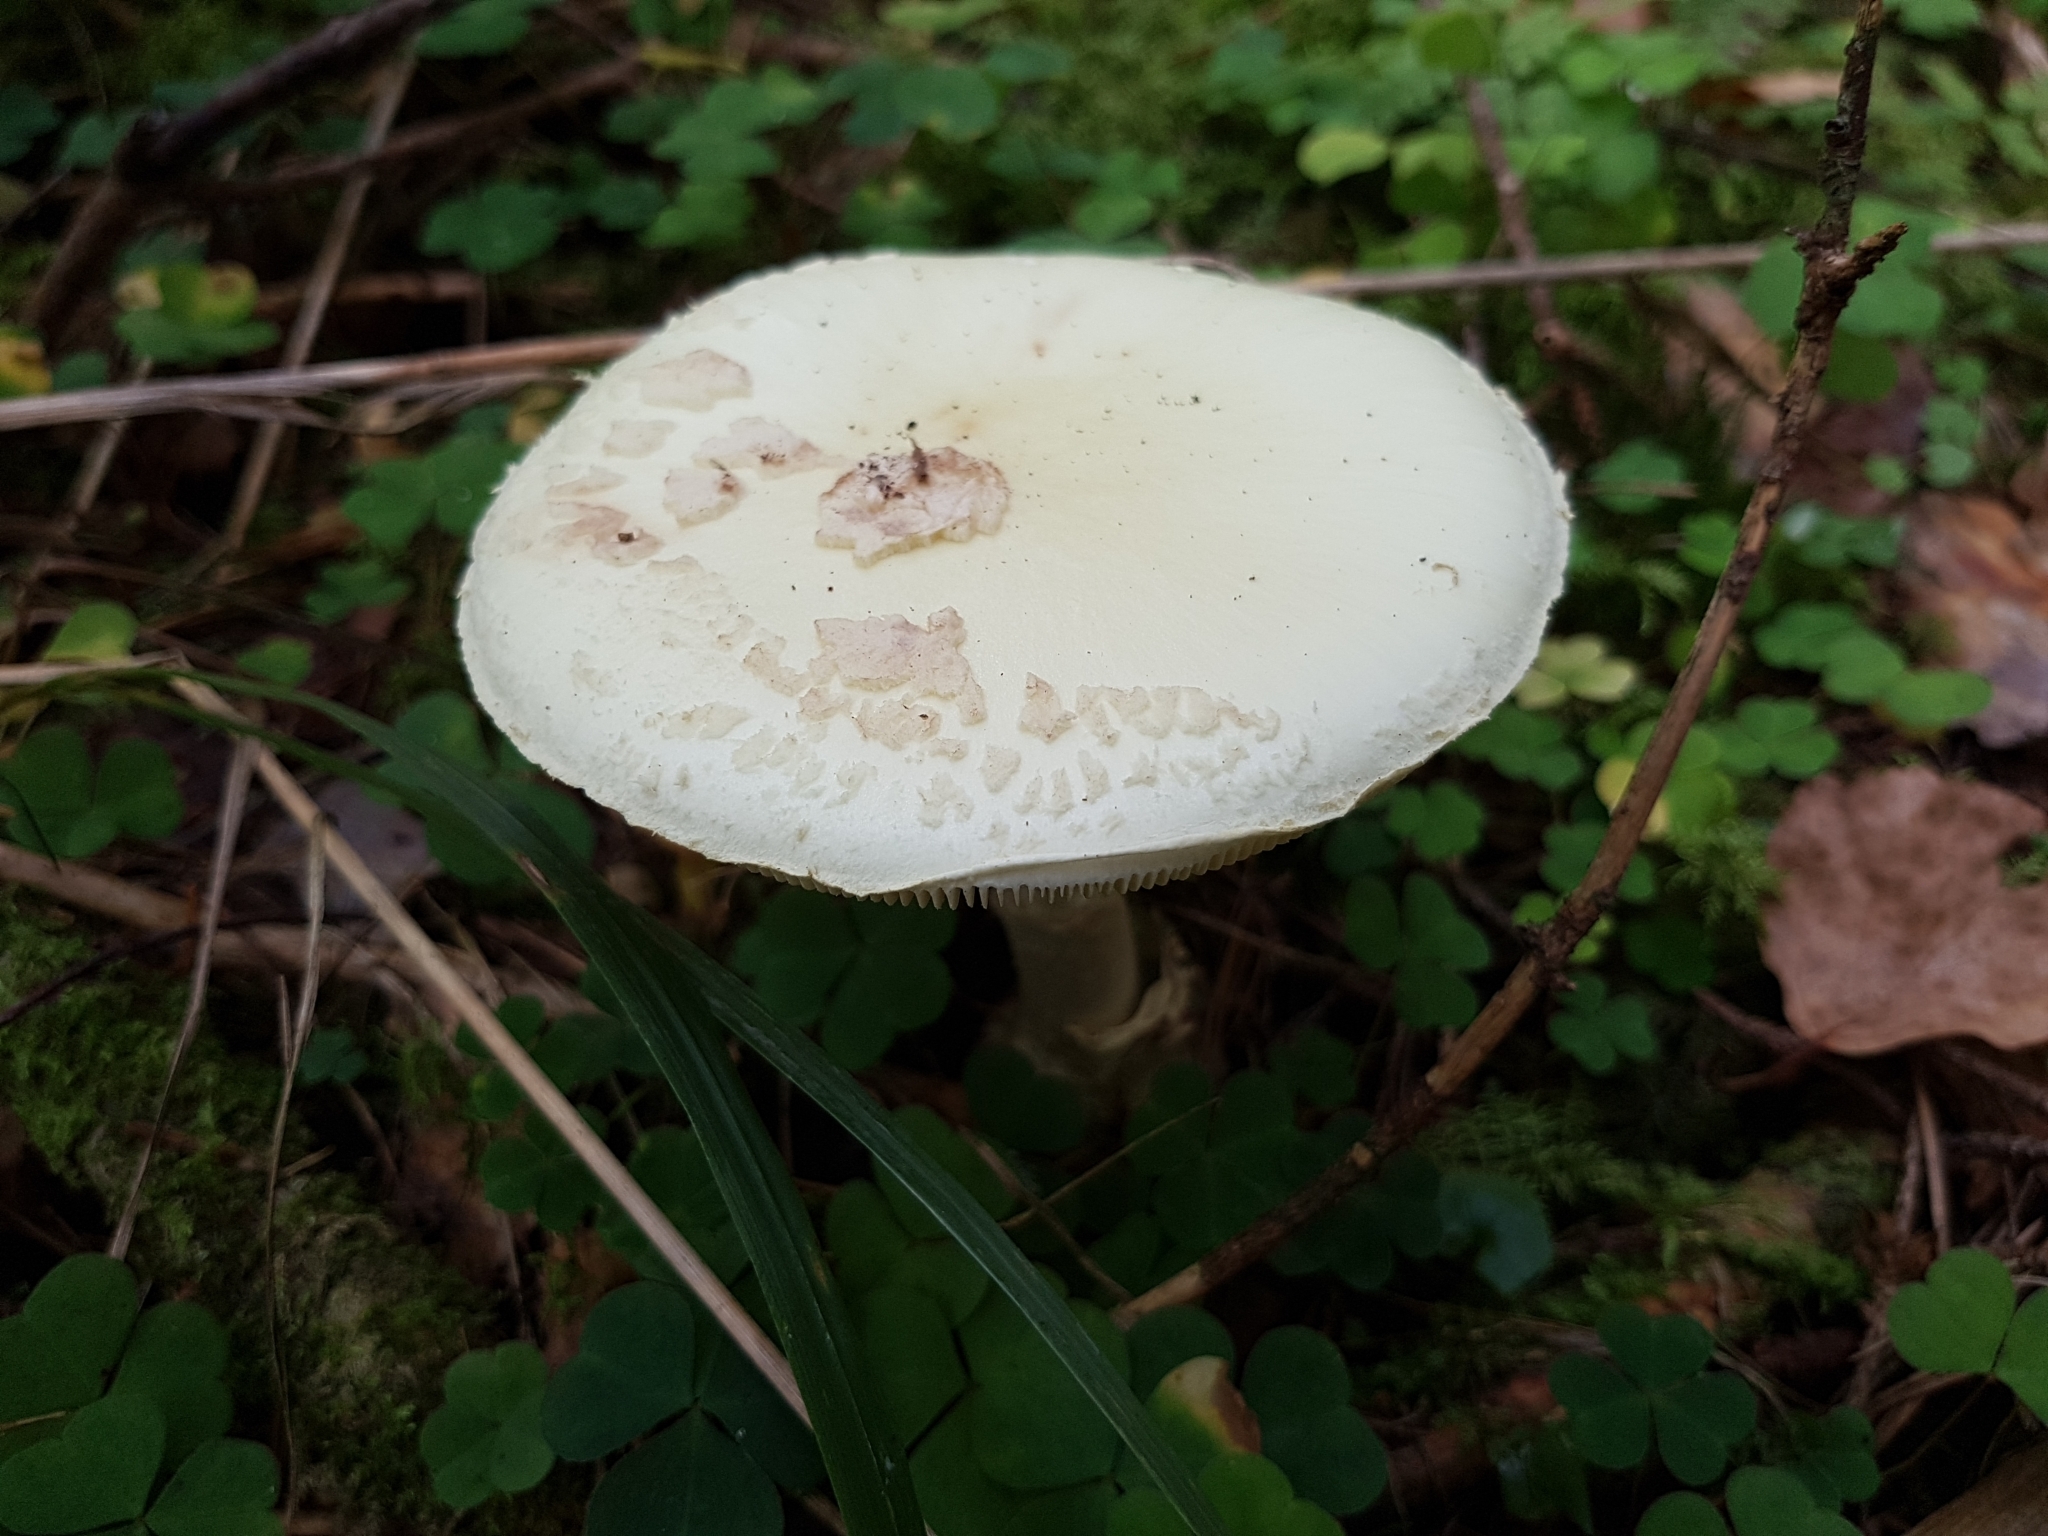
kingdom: Fungi
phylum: Basidiomycota
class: Agaricomycetes
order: Agaricales
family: Amanitaceae
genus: Amanita
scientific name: Amanita citrina
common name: False death-cap
